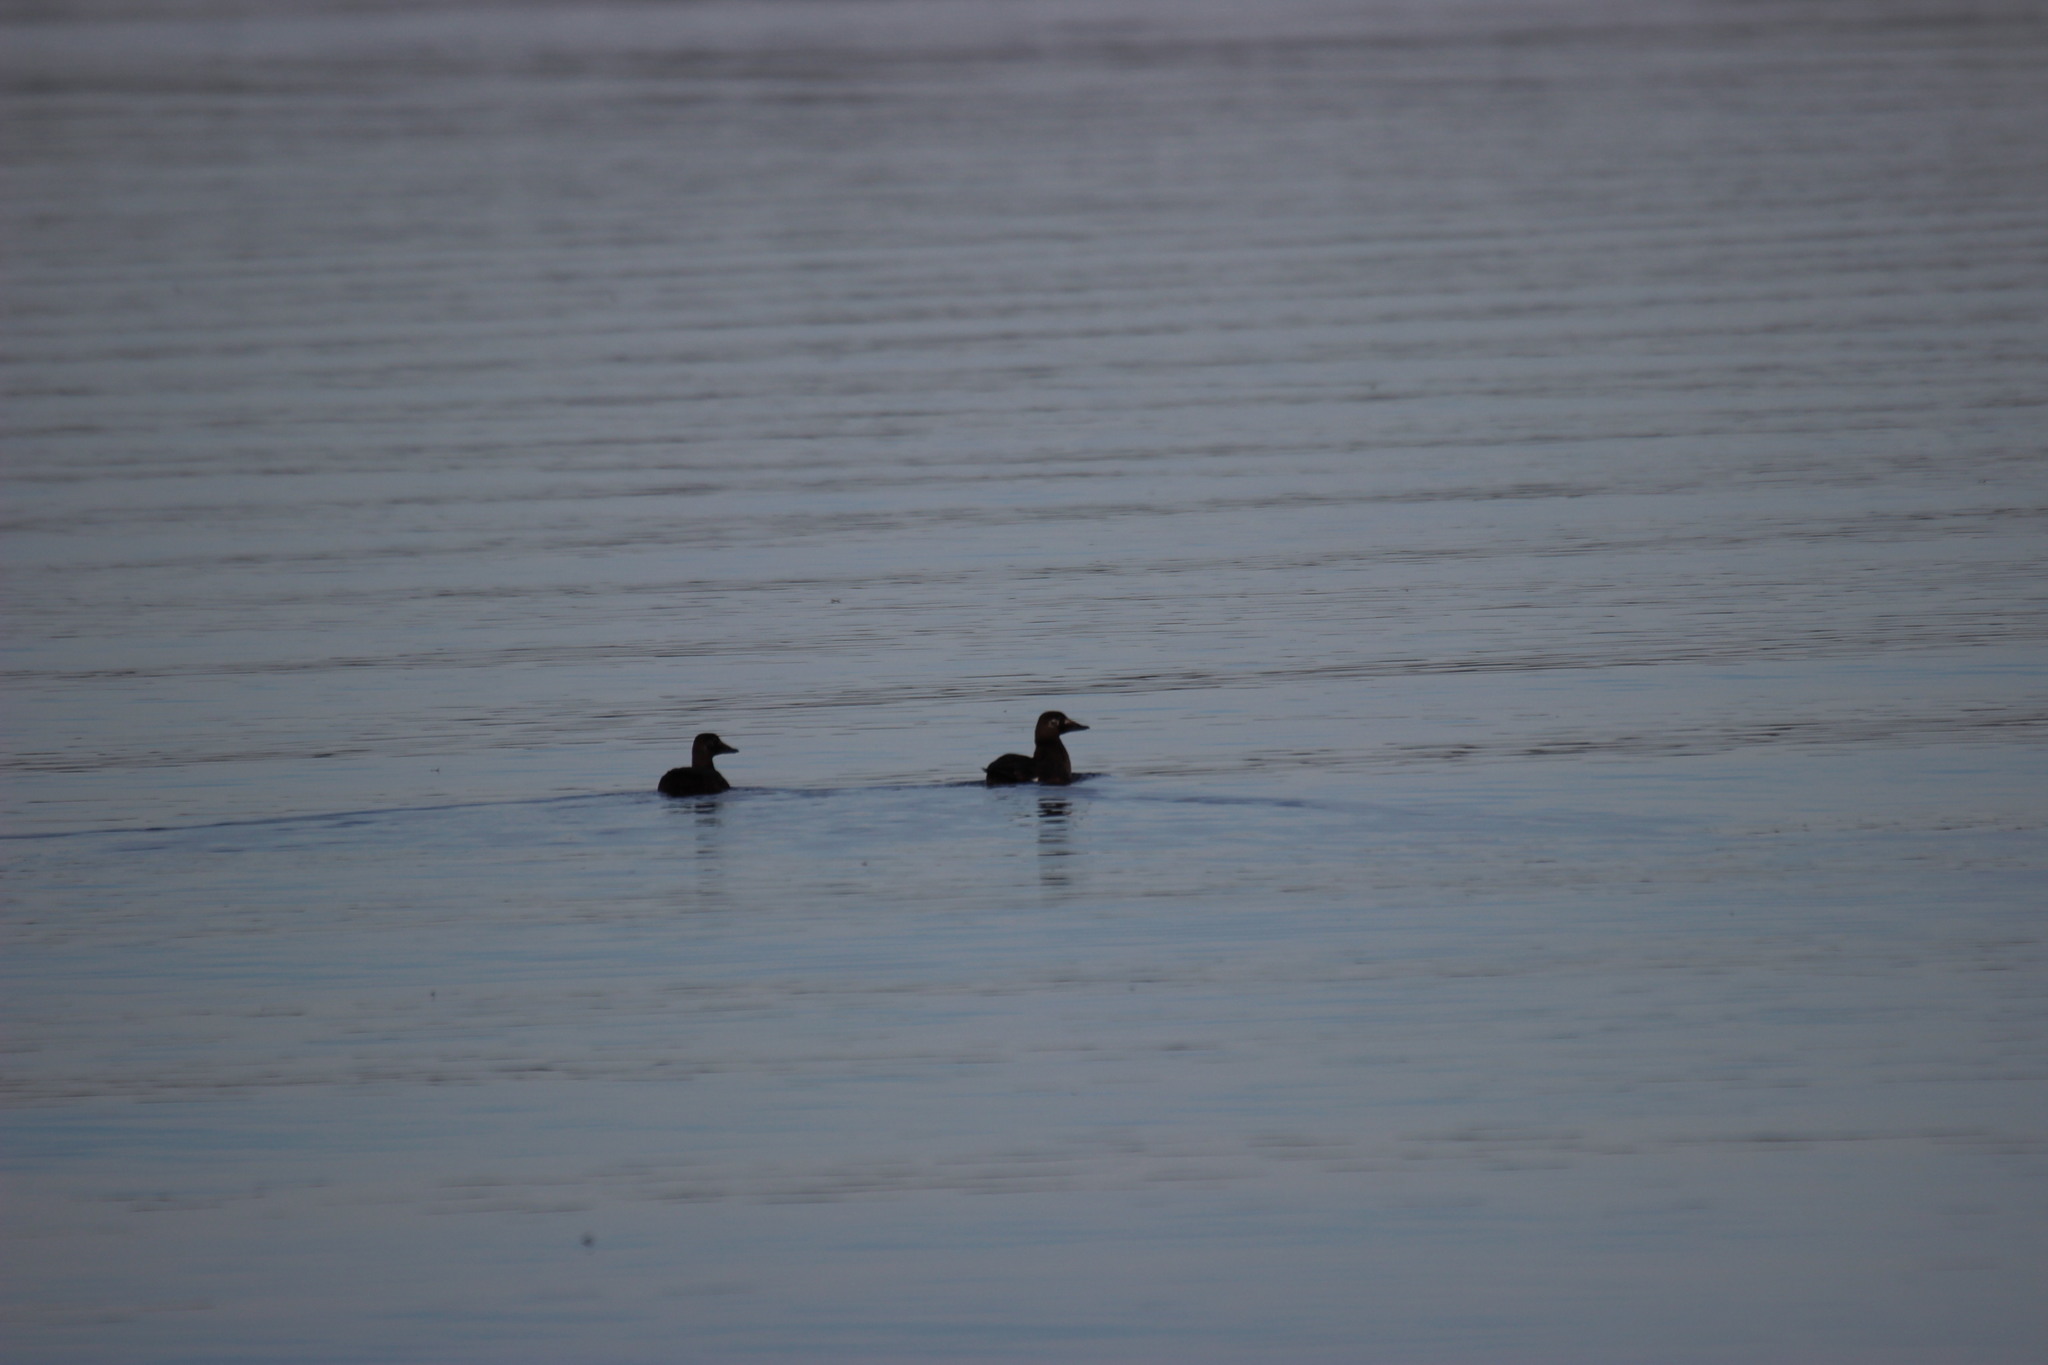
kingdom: Animalia
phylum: Chordata
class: Aves
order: Anseriformes
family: Anatidae
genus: Melanitta
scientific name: Melanitta deglandi
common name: White-winged scoter
